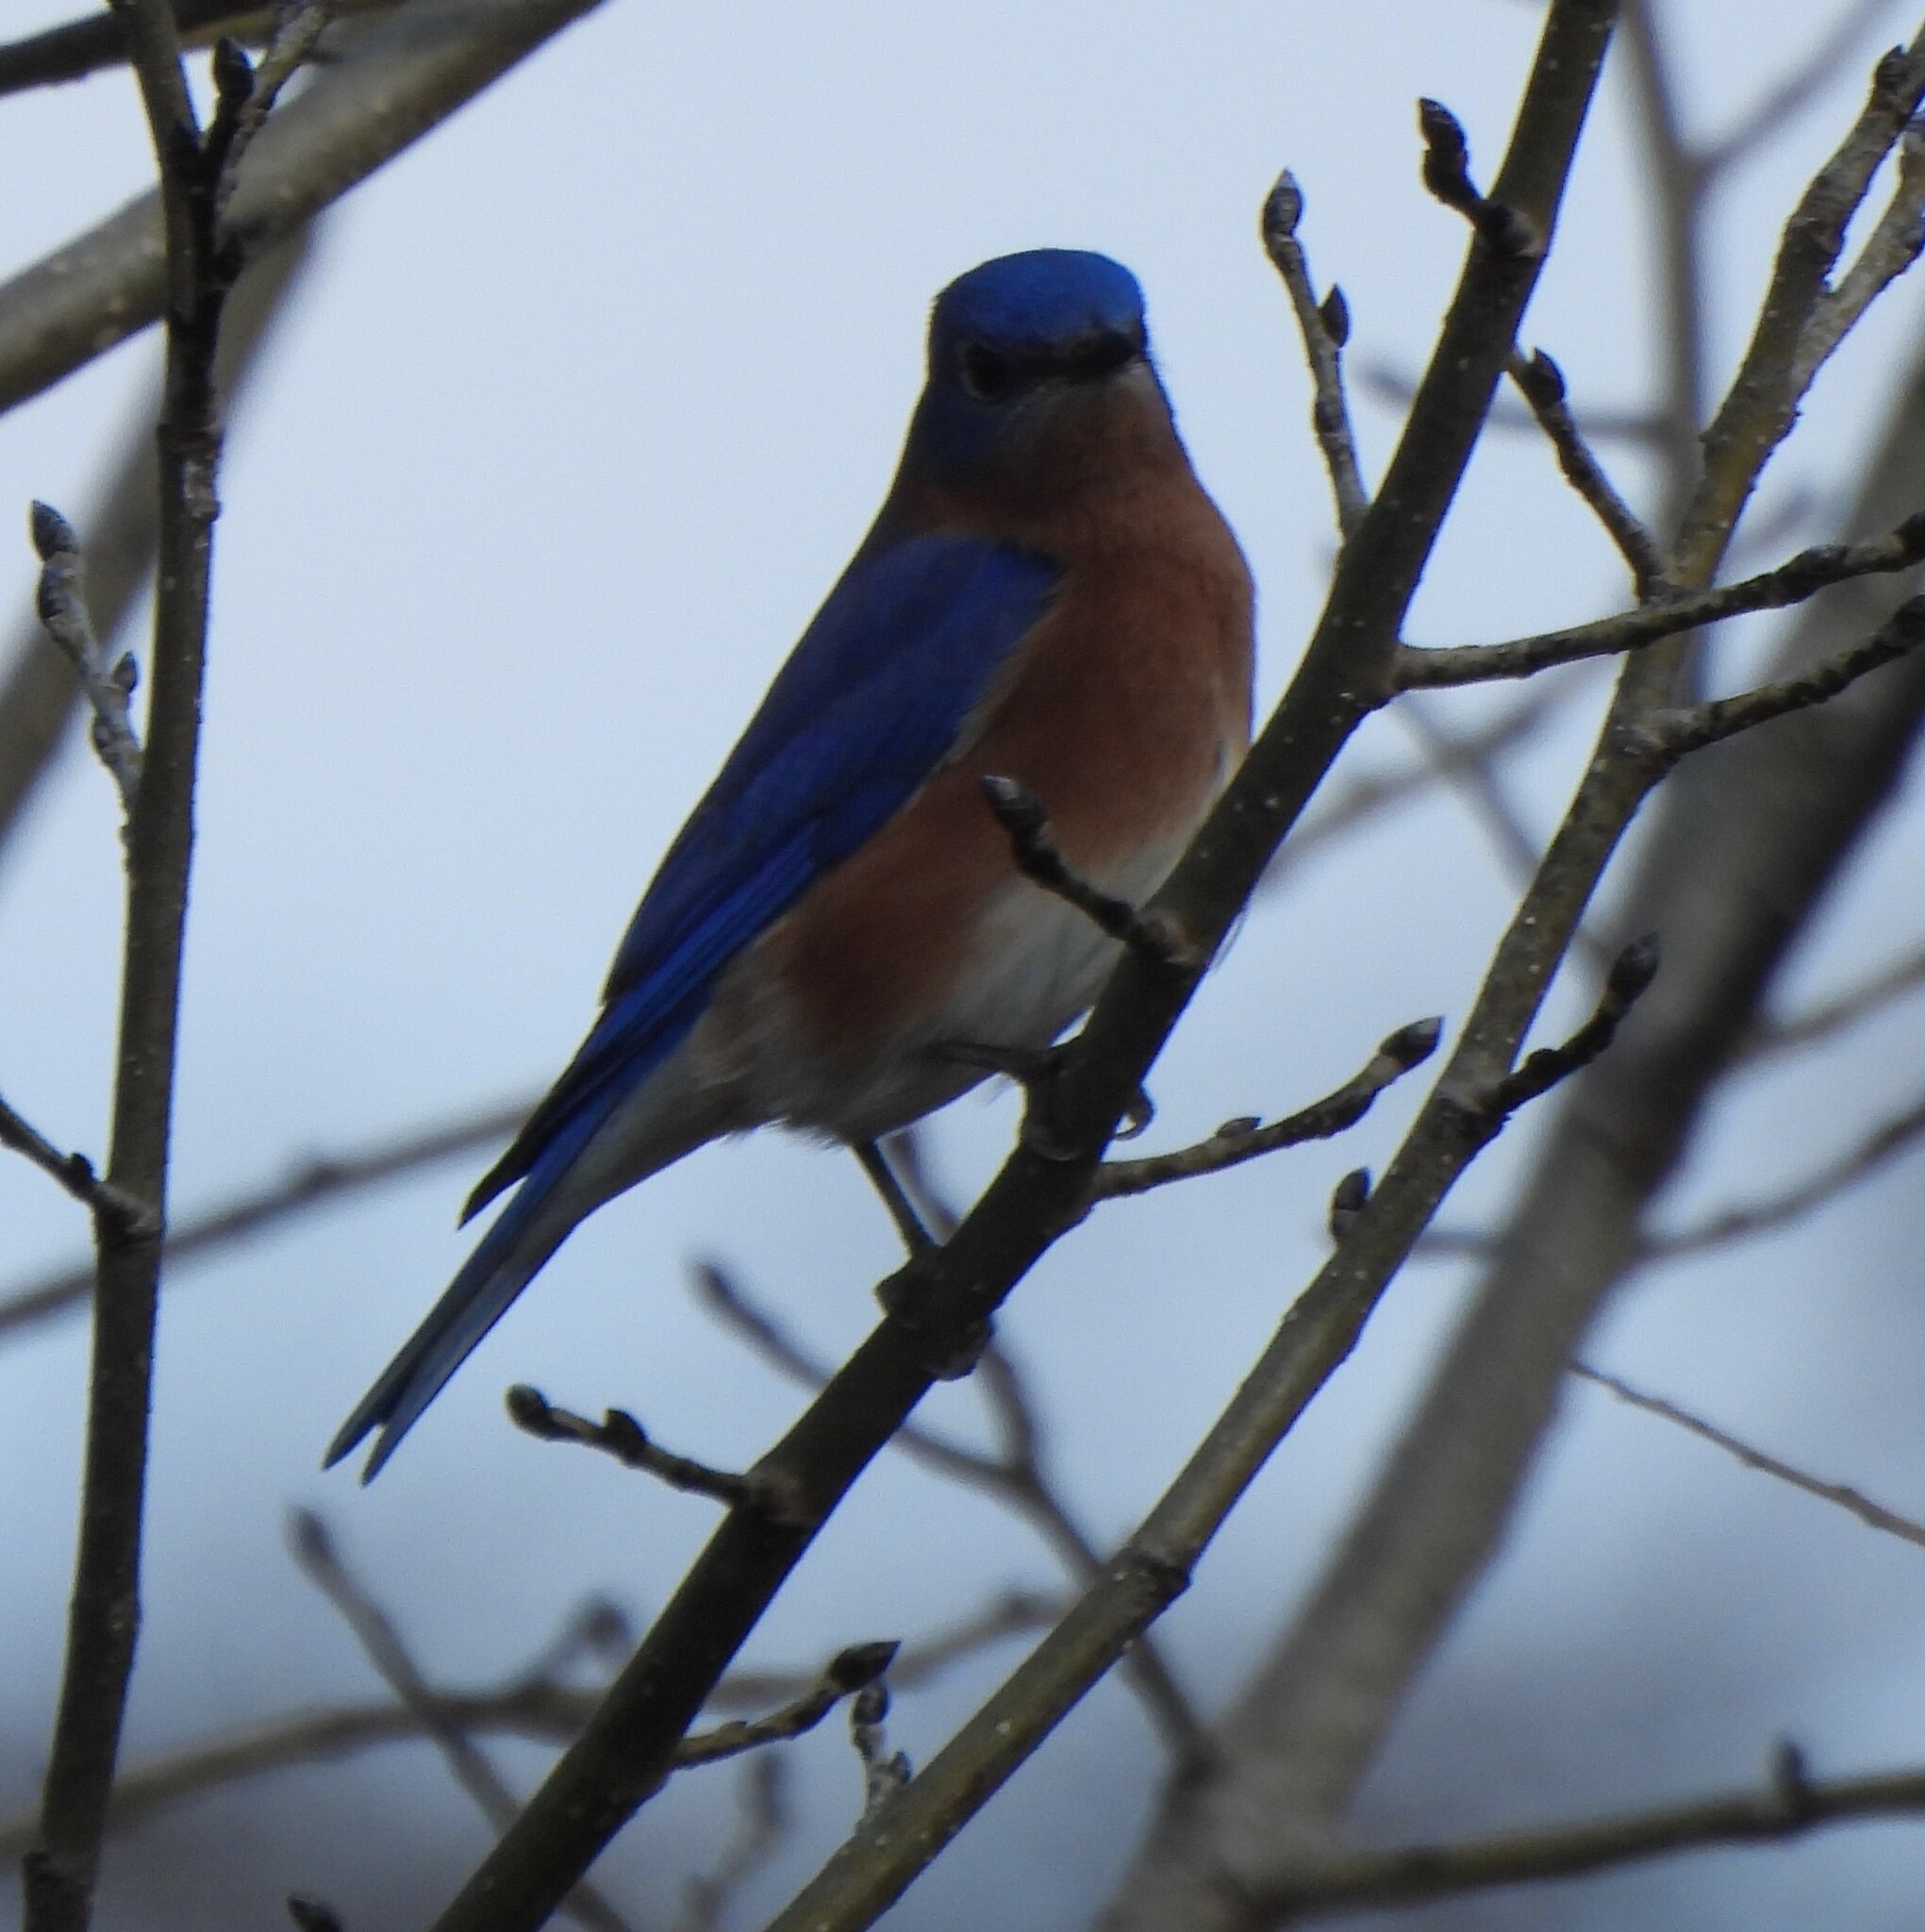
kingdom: Animalia
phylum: Chordata
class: Aves
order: Passeriformes
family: Turdidae
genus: Sialia
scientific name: Sialia sialis
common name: Eastern bluebird
